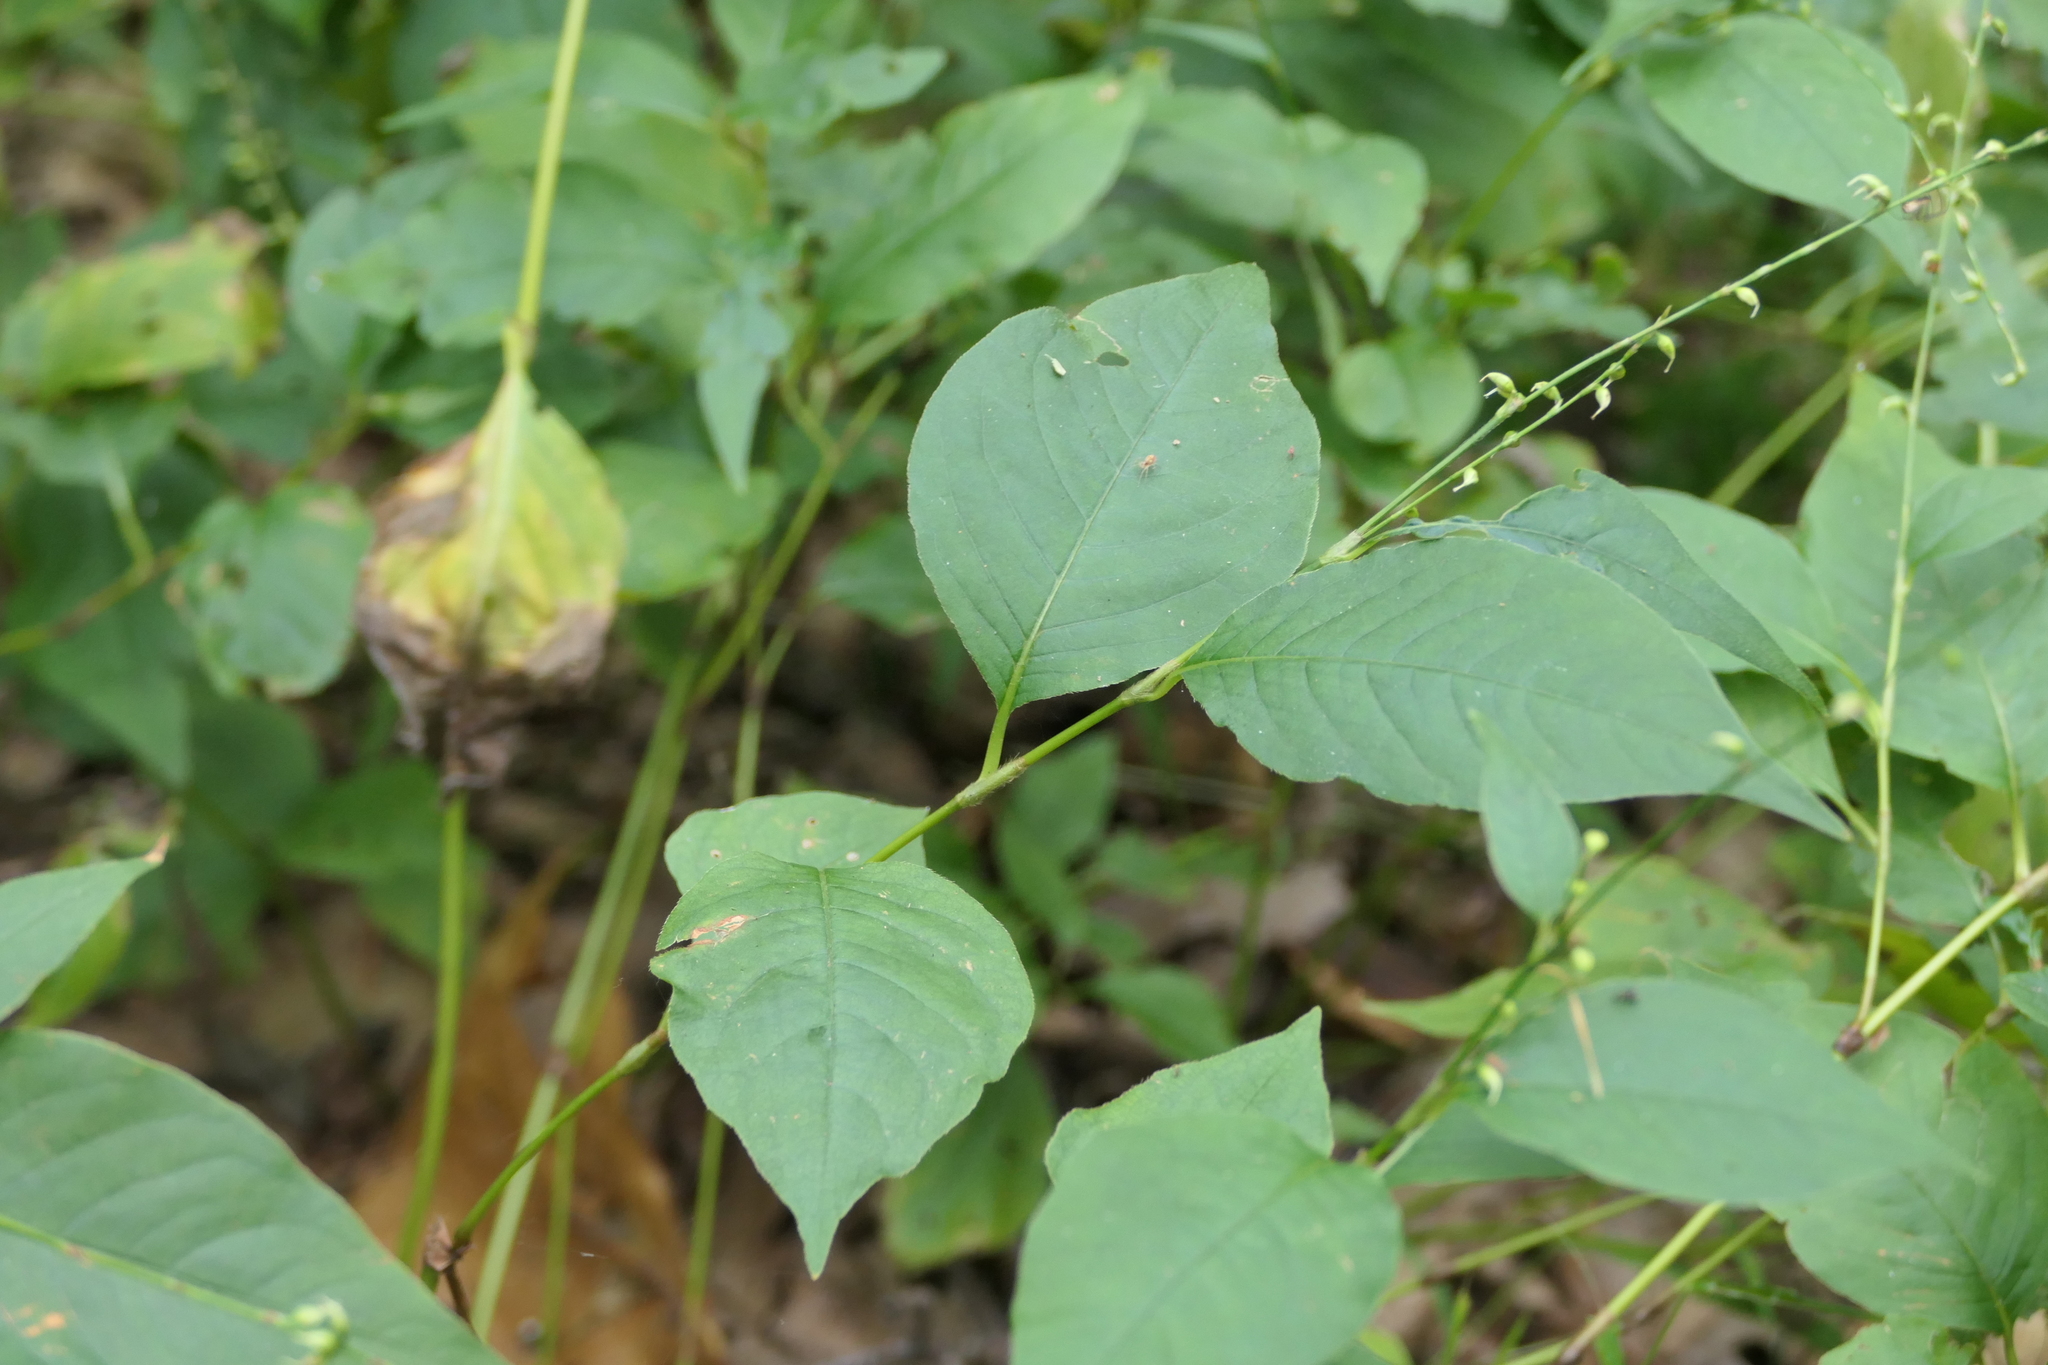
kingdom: Plantae
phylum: Tracheophyta
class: Magnoliopsida
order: Caryophyllales
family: Polygonaceae
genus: Persicaria
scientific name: Persicaria virginiana
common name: Jumpseed
